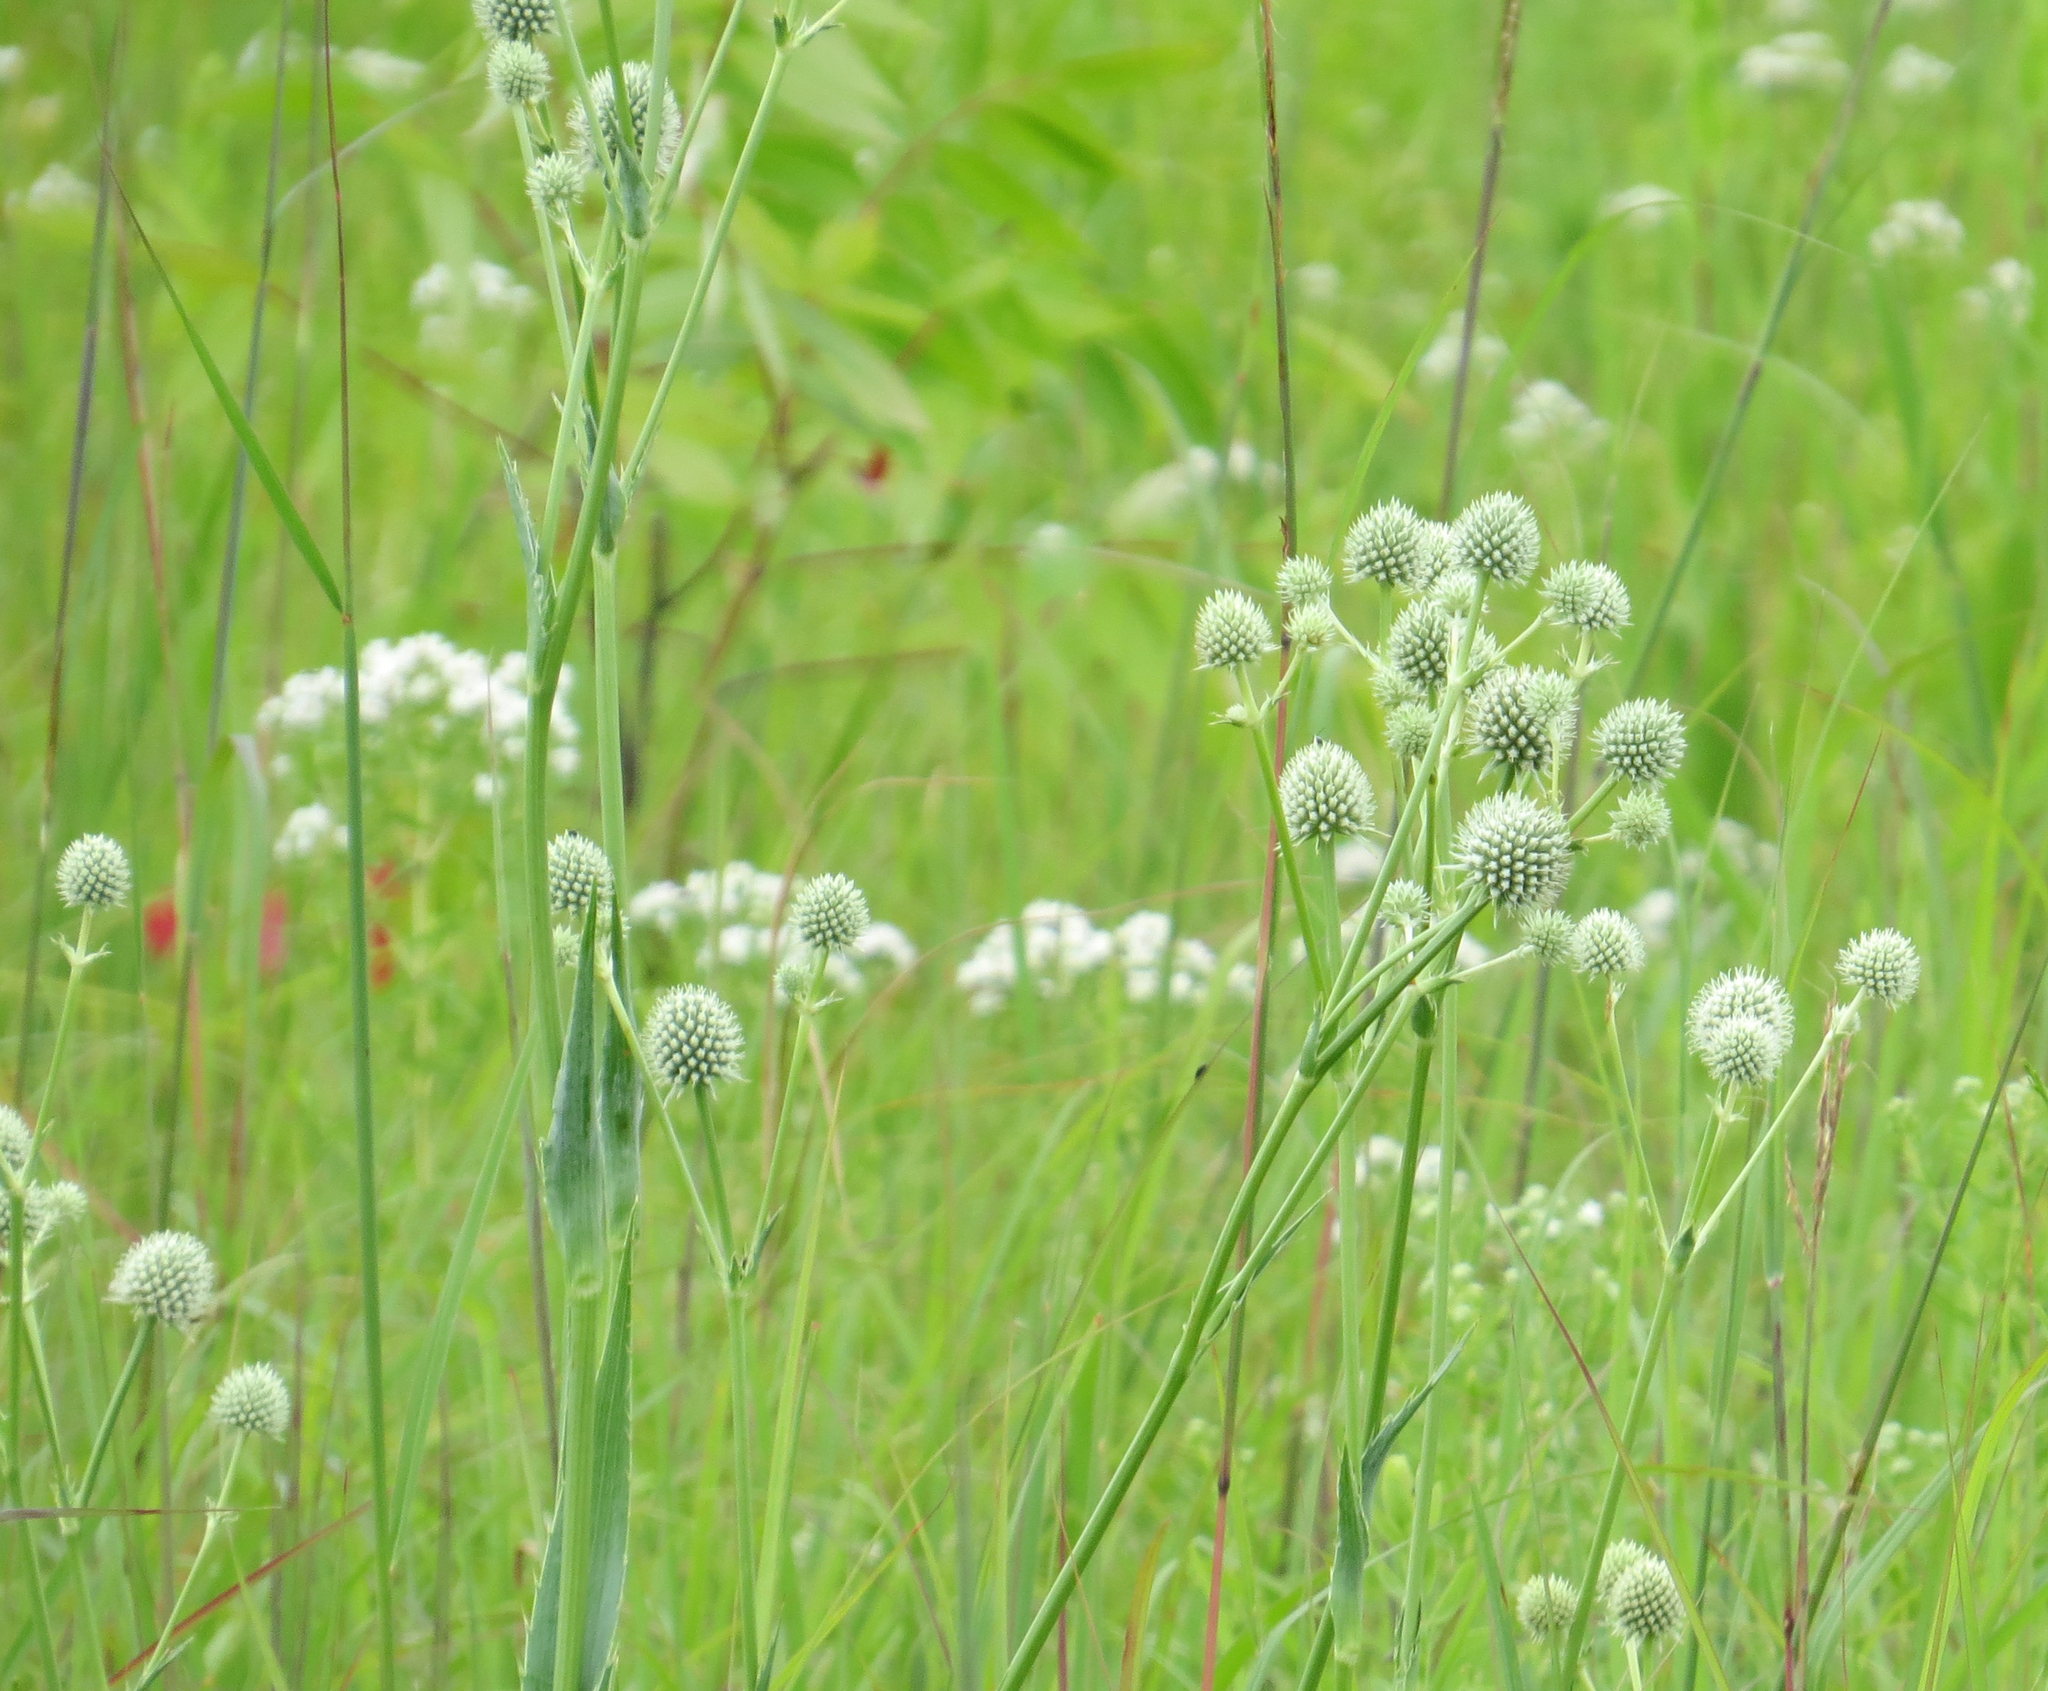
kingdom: Plantae
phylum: Tracheophyta
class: Magnoliopsida
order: Apiales
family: Apiaceae
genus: Eryngium
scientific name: Eryngium yuccifolium
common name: Button eryngo
